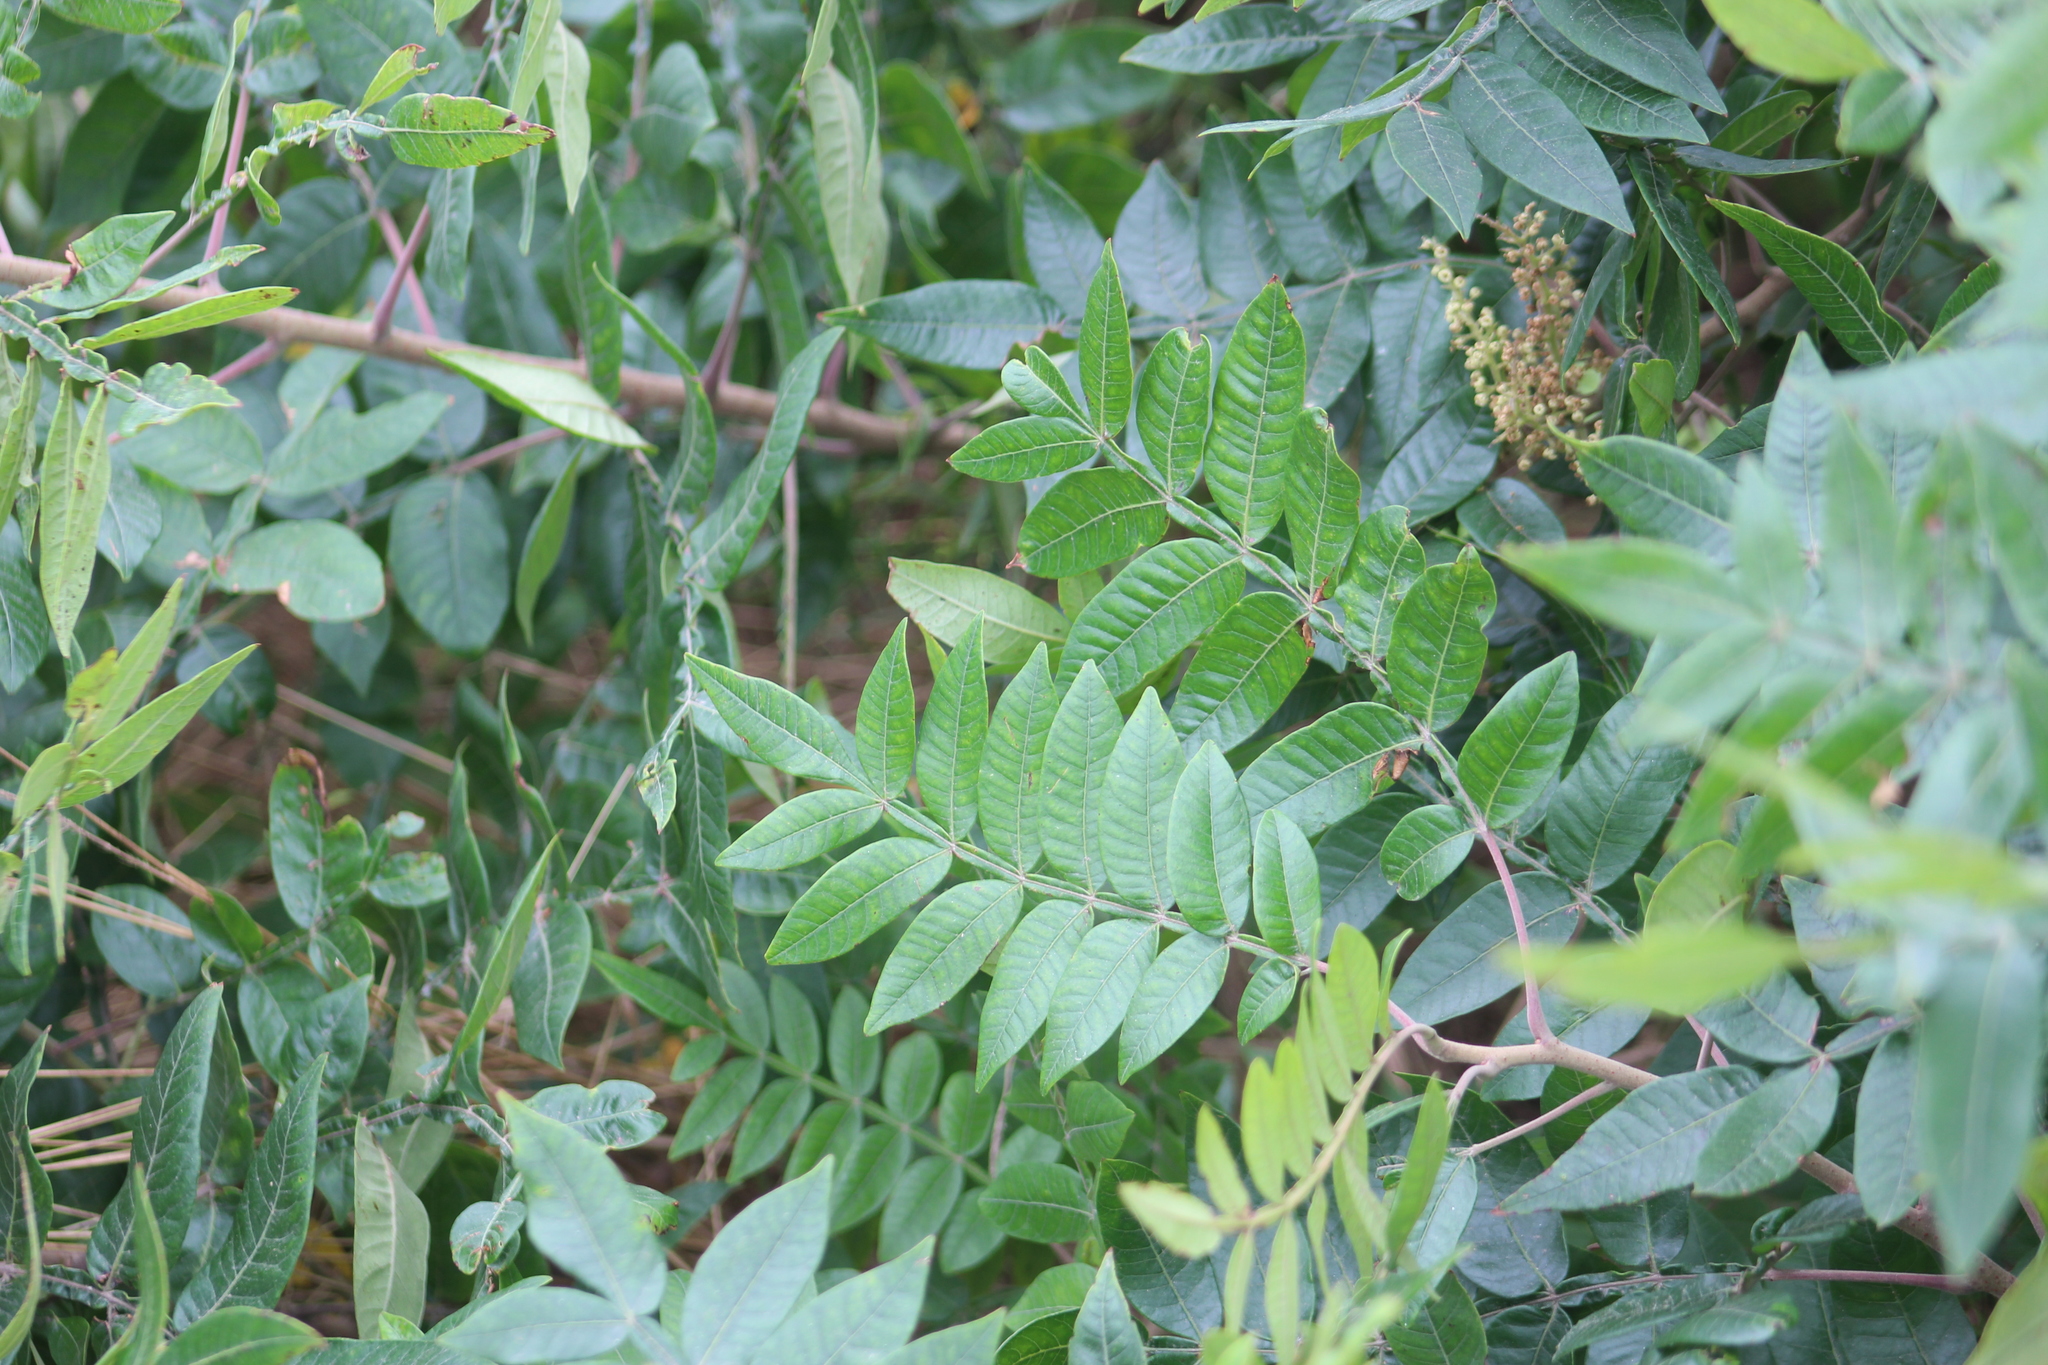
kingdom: Plantae
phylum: Tracheophyta
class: Magnoliopsida
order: Sapindales
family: Anacardiaceae
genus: Rhus
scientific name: Rhus copallina
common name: Shining sumac
